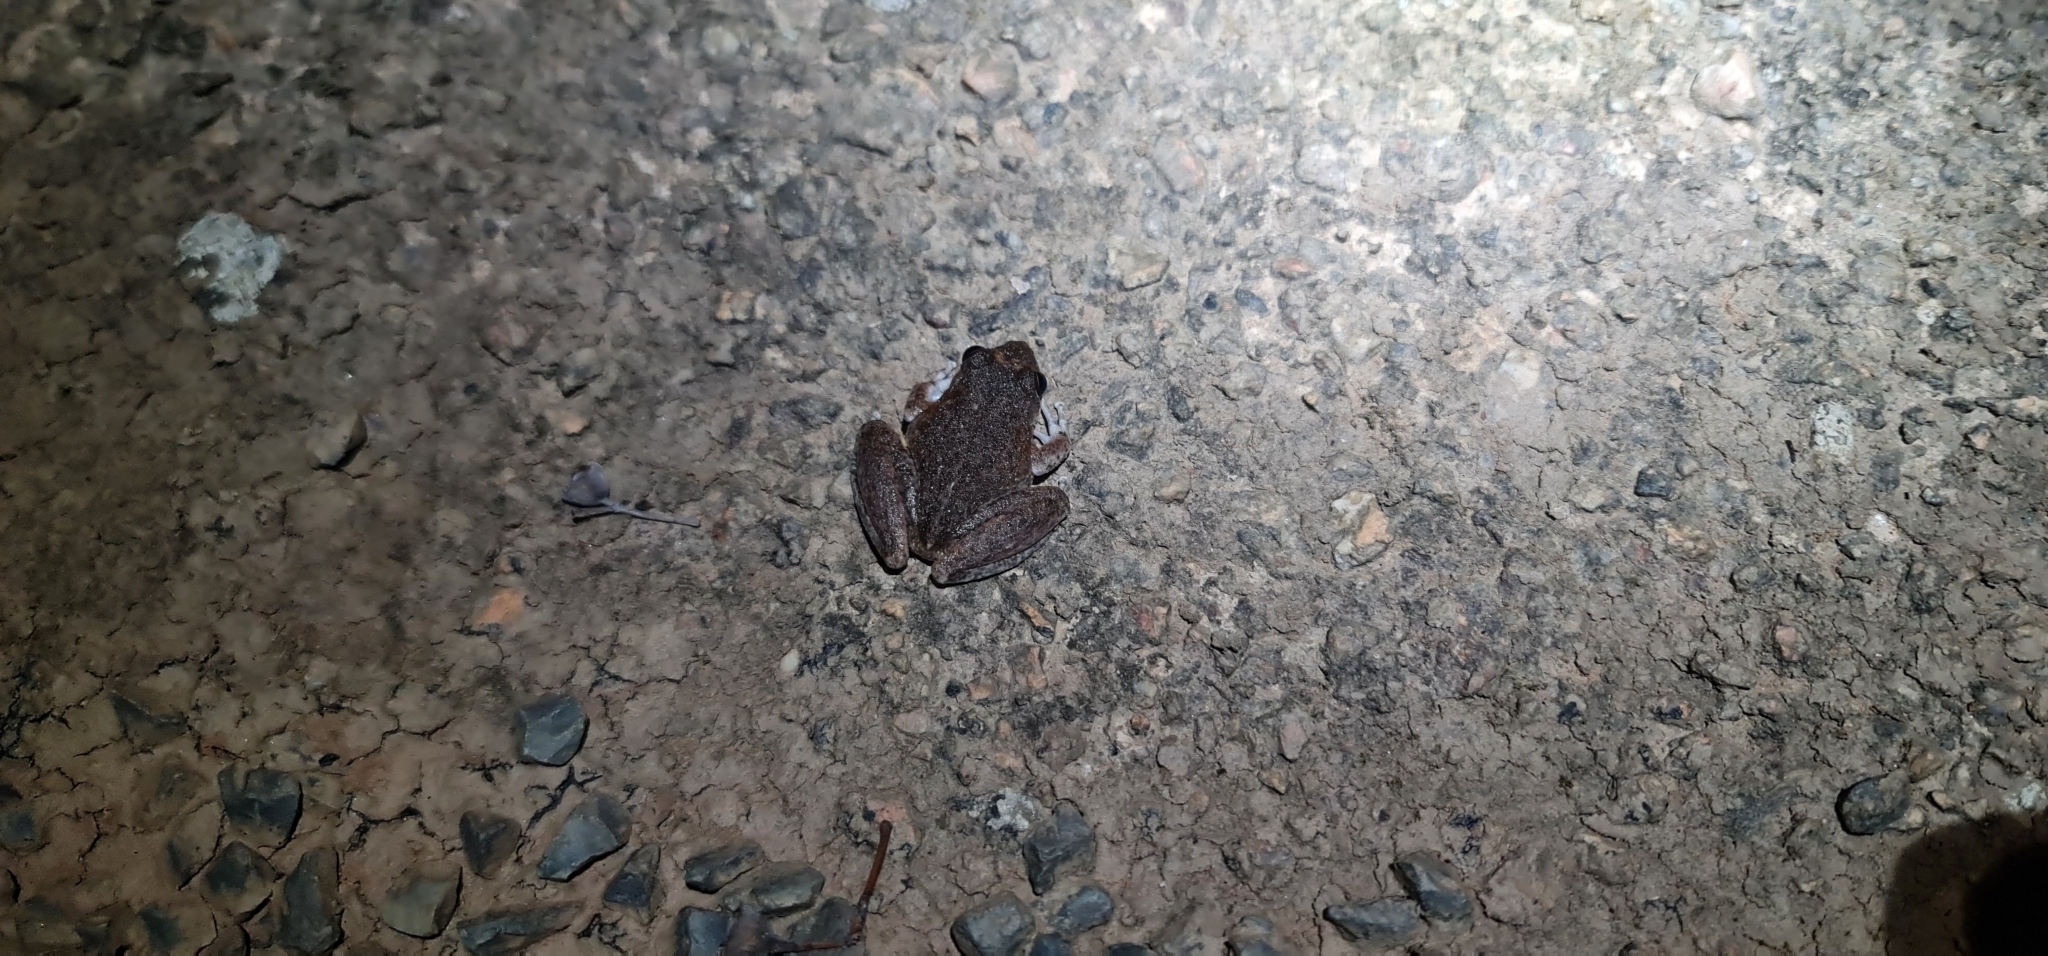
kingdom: Animalia
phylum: Chordata
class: Amphibia
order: Anura
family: Pelodryadidae
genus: Litoria
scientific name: Litoria coplandi
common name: Copland’s rock frog
